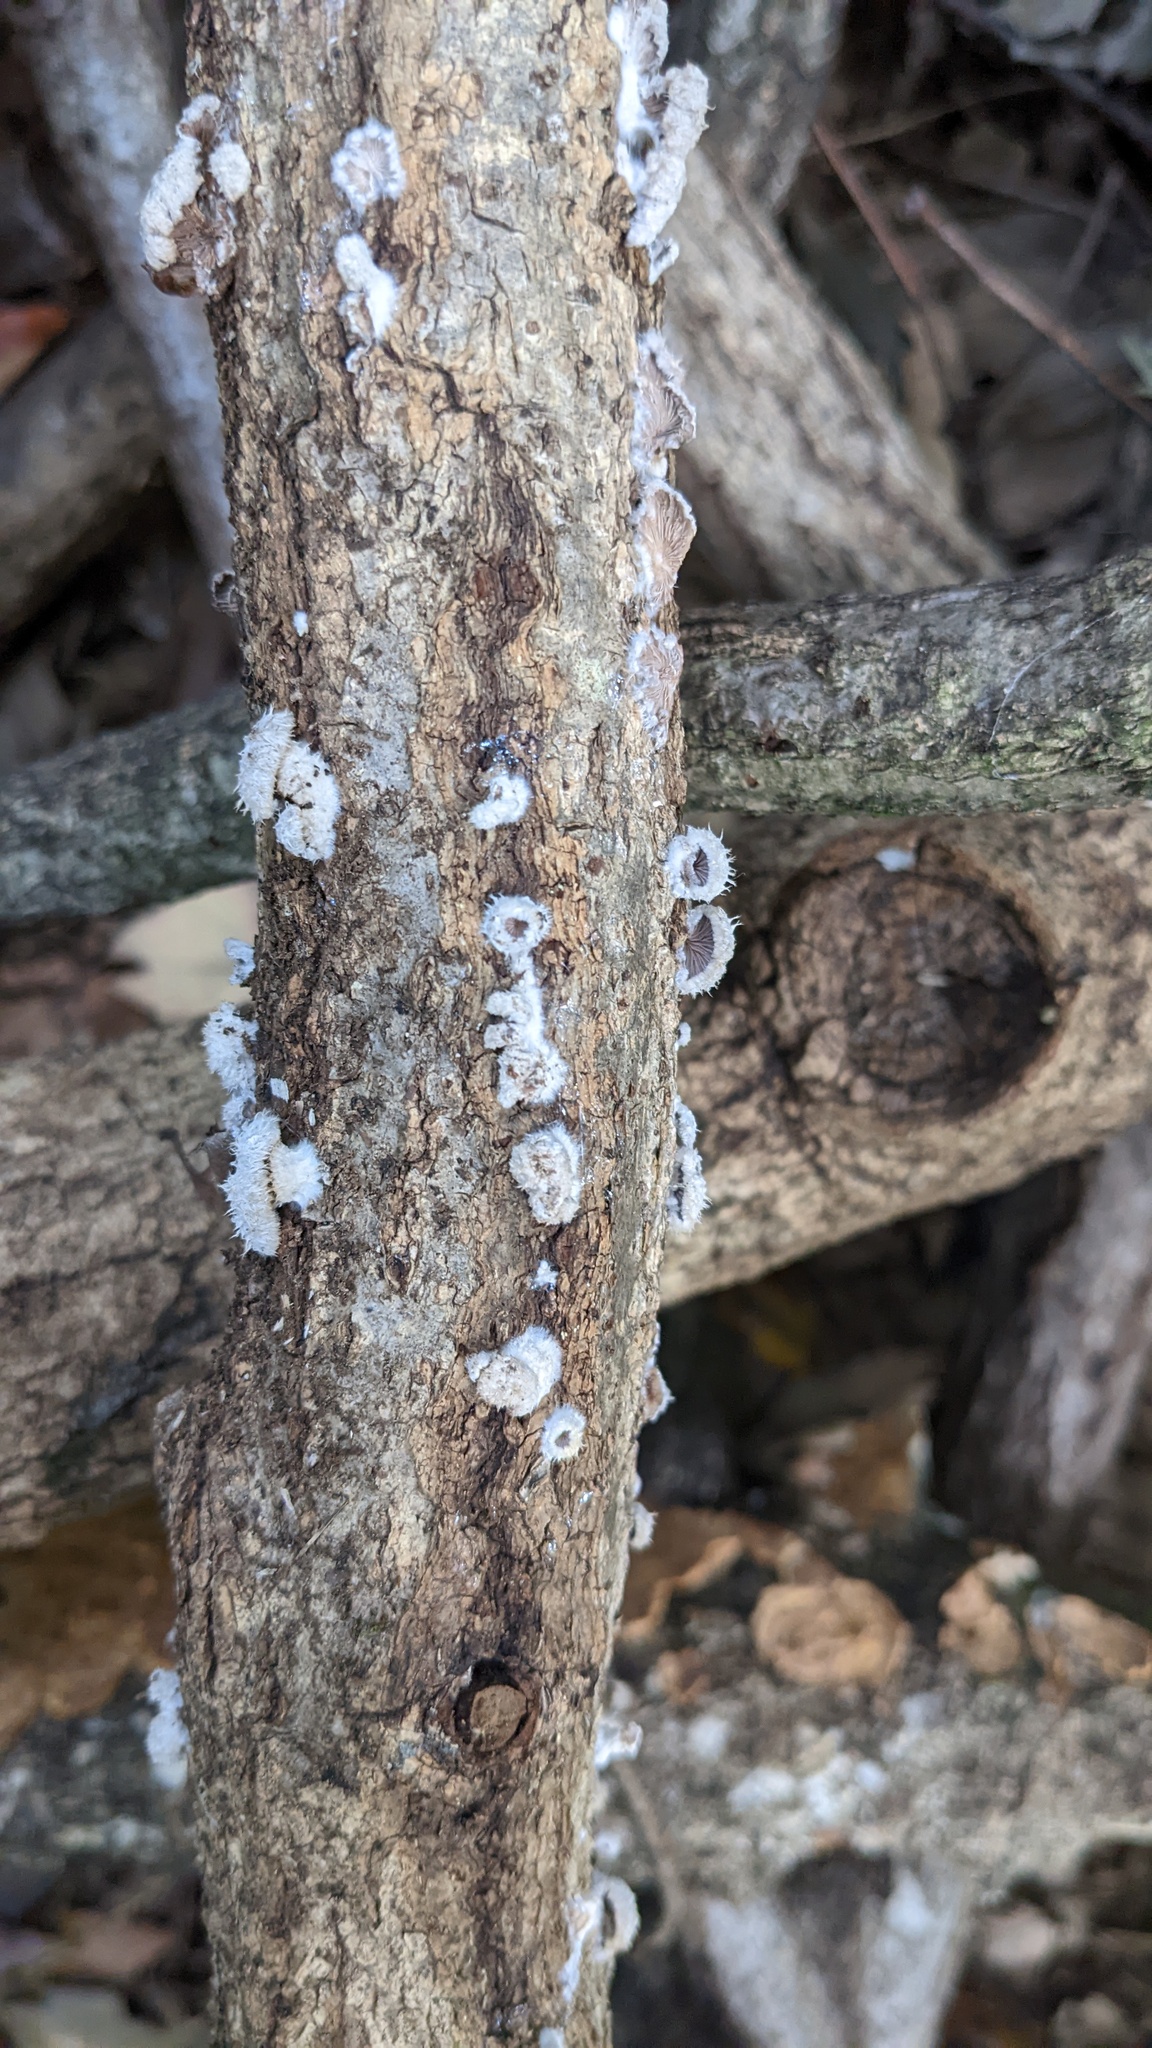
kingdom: Fungi
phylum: Basidiomycota
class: Agaricomycetes
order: Agaricales
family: Schizophyllaceae
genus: Schizophyllum
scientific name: Schizophyllum commune
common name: Common porecrust
